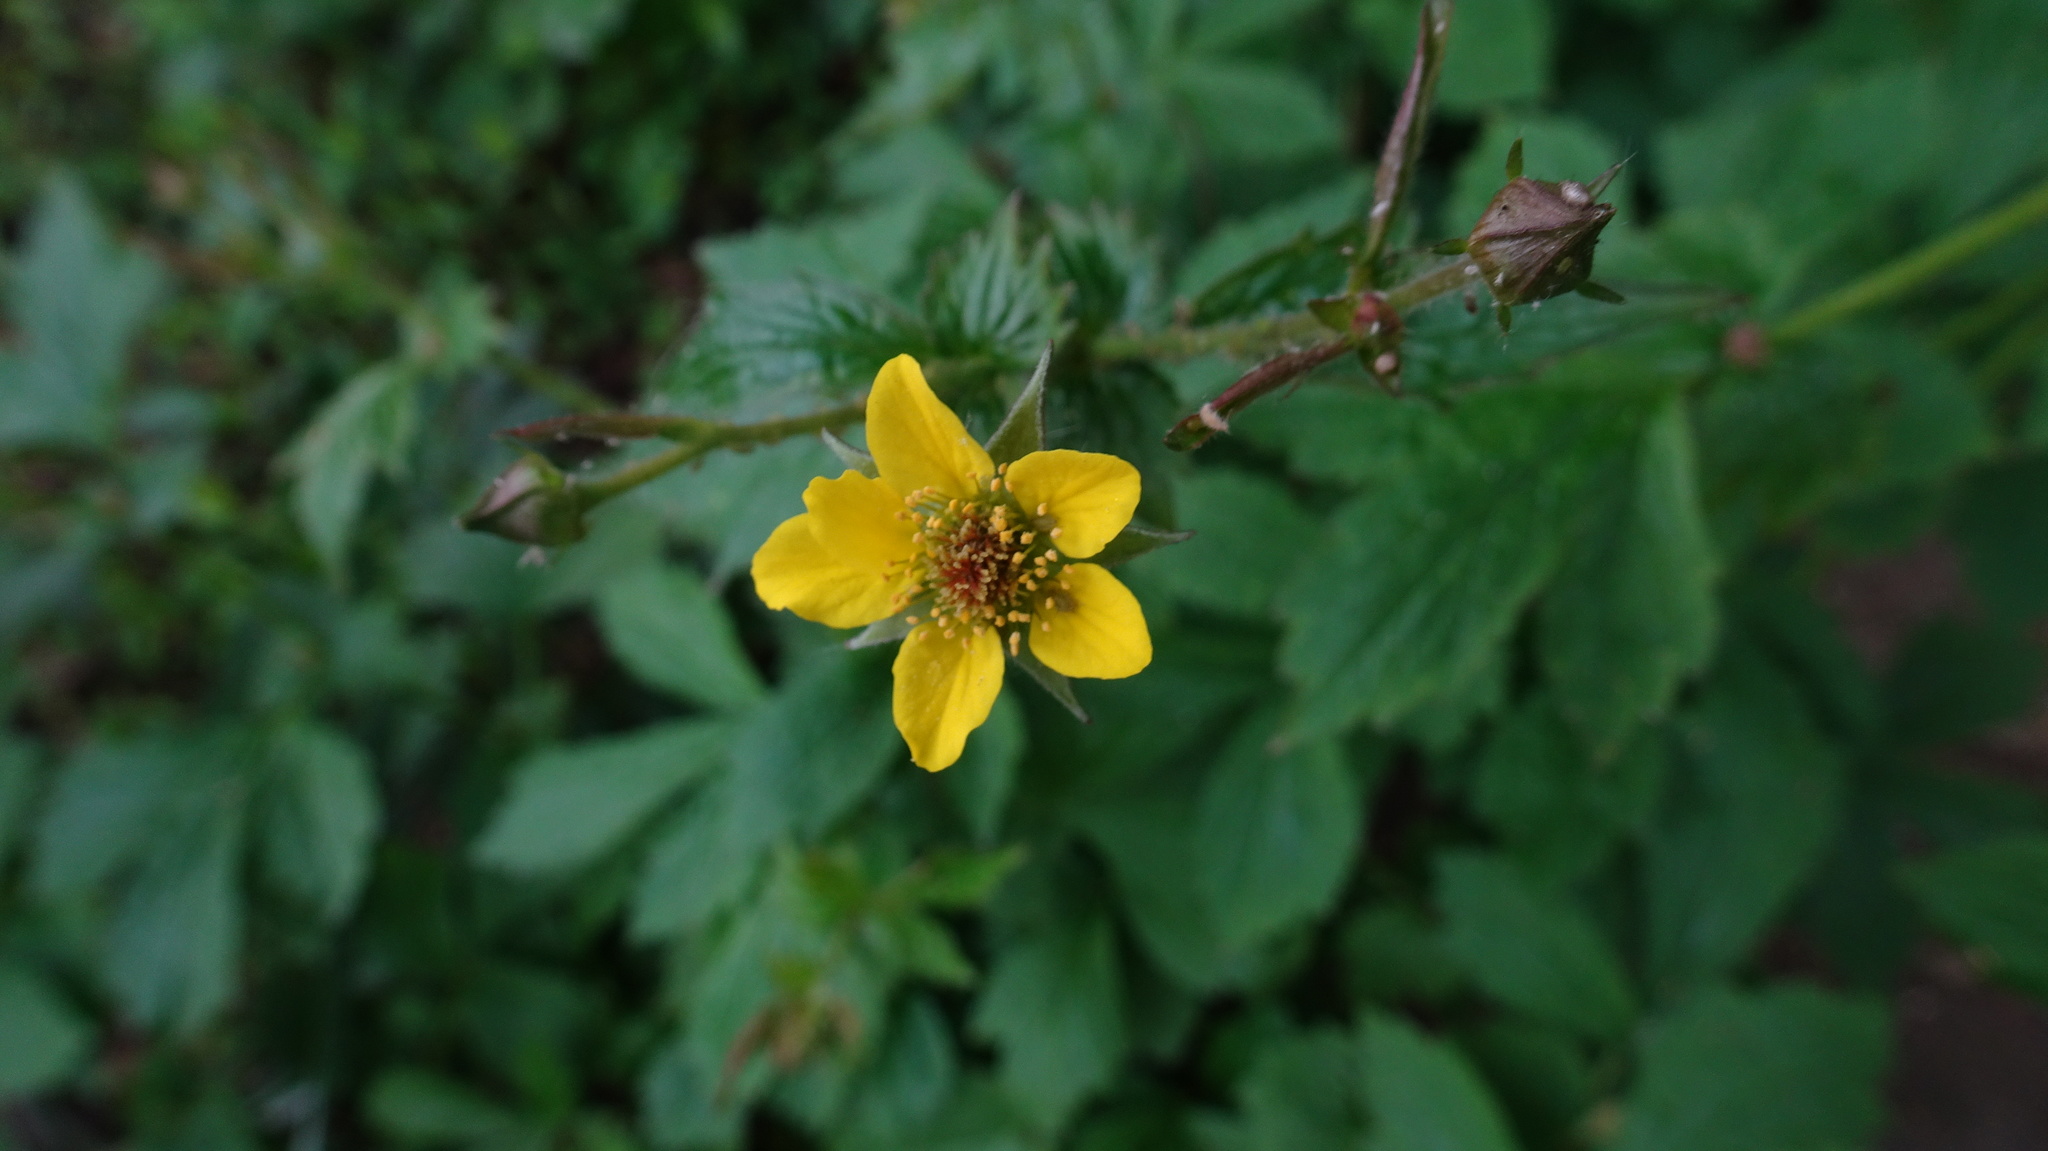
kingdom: Plantae
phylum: Tracheophyta
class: Magnoliopsida
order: Rosales
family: Rosaceae
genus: Geum
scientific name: Geum urbanum
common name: Wood avens
